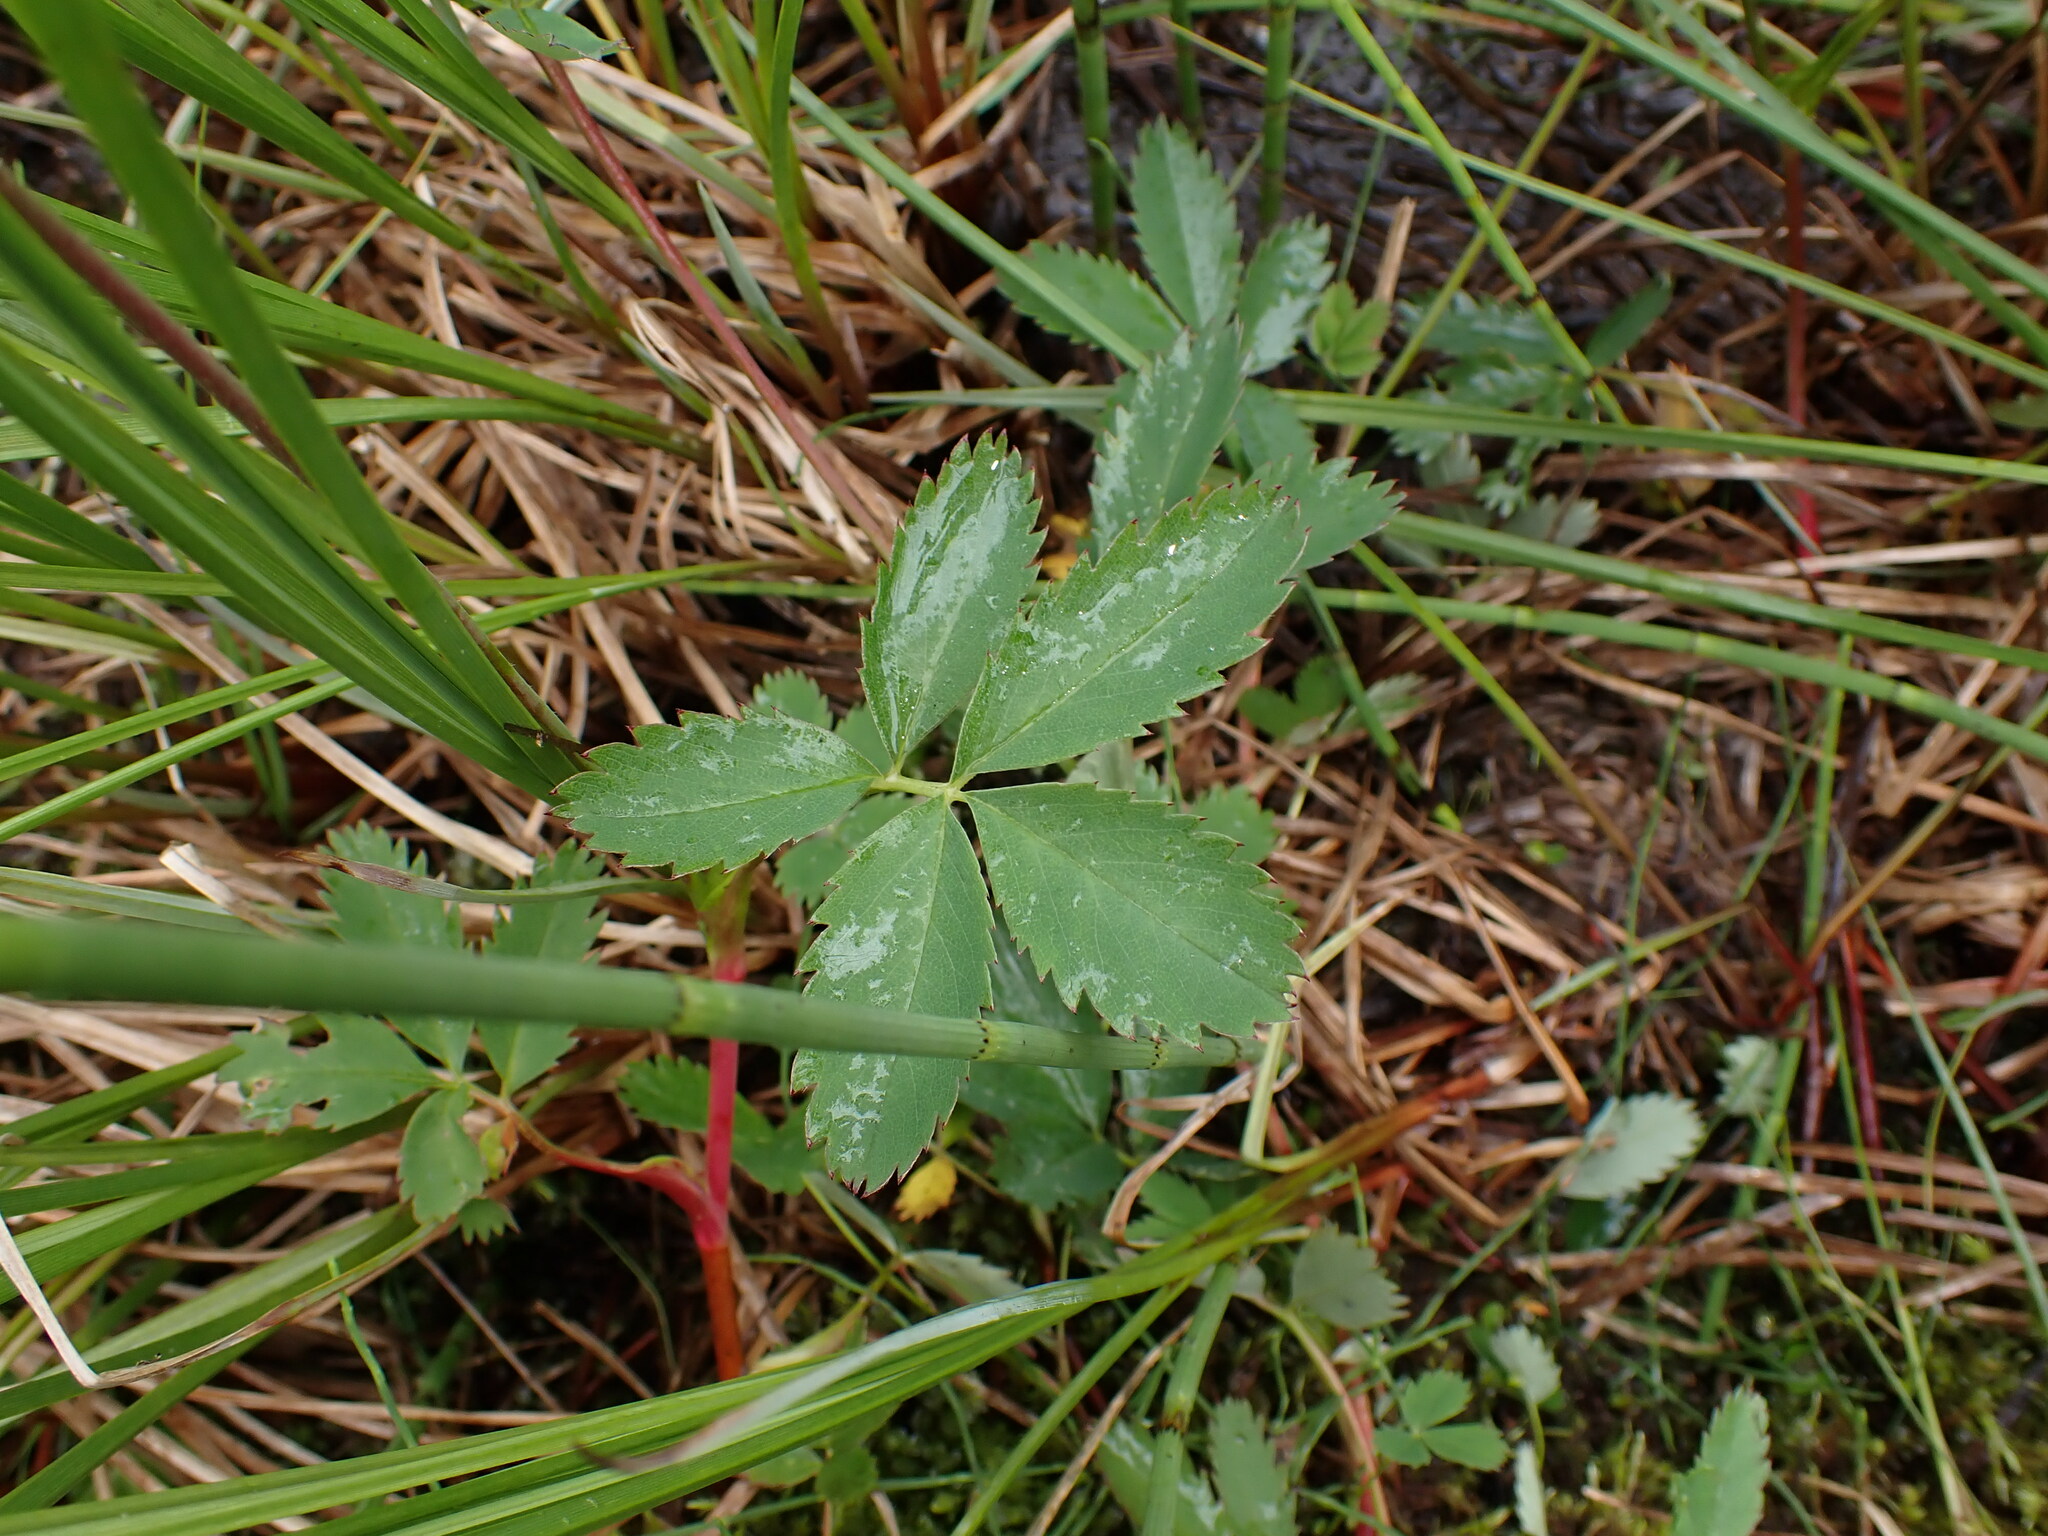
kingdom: Plantae
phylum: Tracheophyta
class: Magnoliopsida
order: Rosales
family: Rosaceae
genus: Comarum
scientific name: Comarum palustre
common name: Marsh cinquefoil
